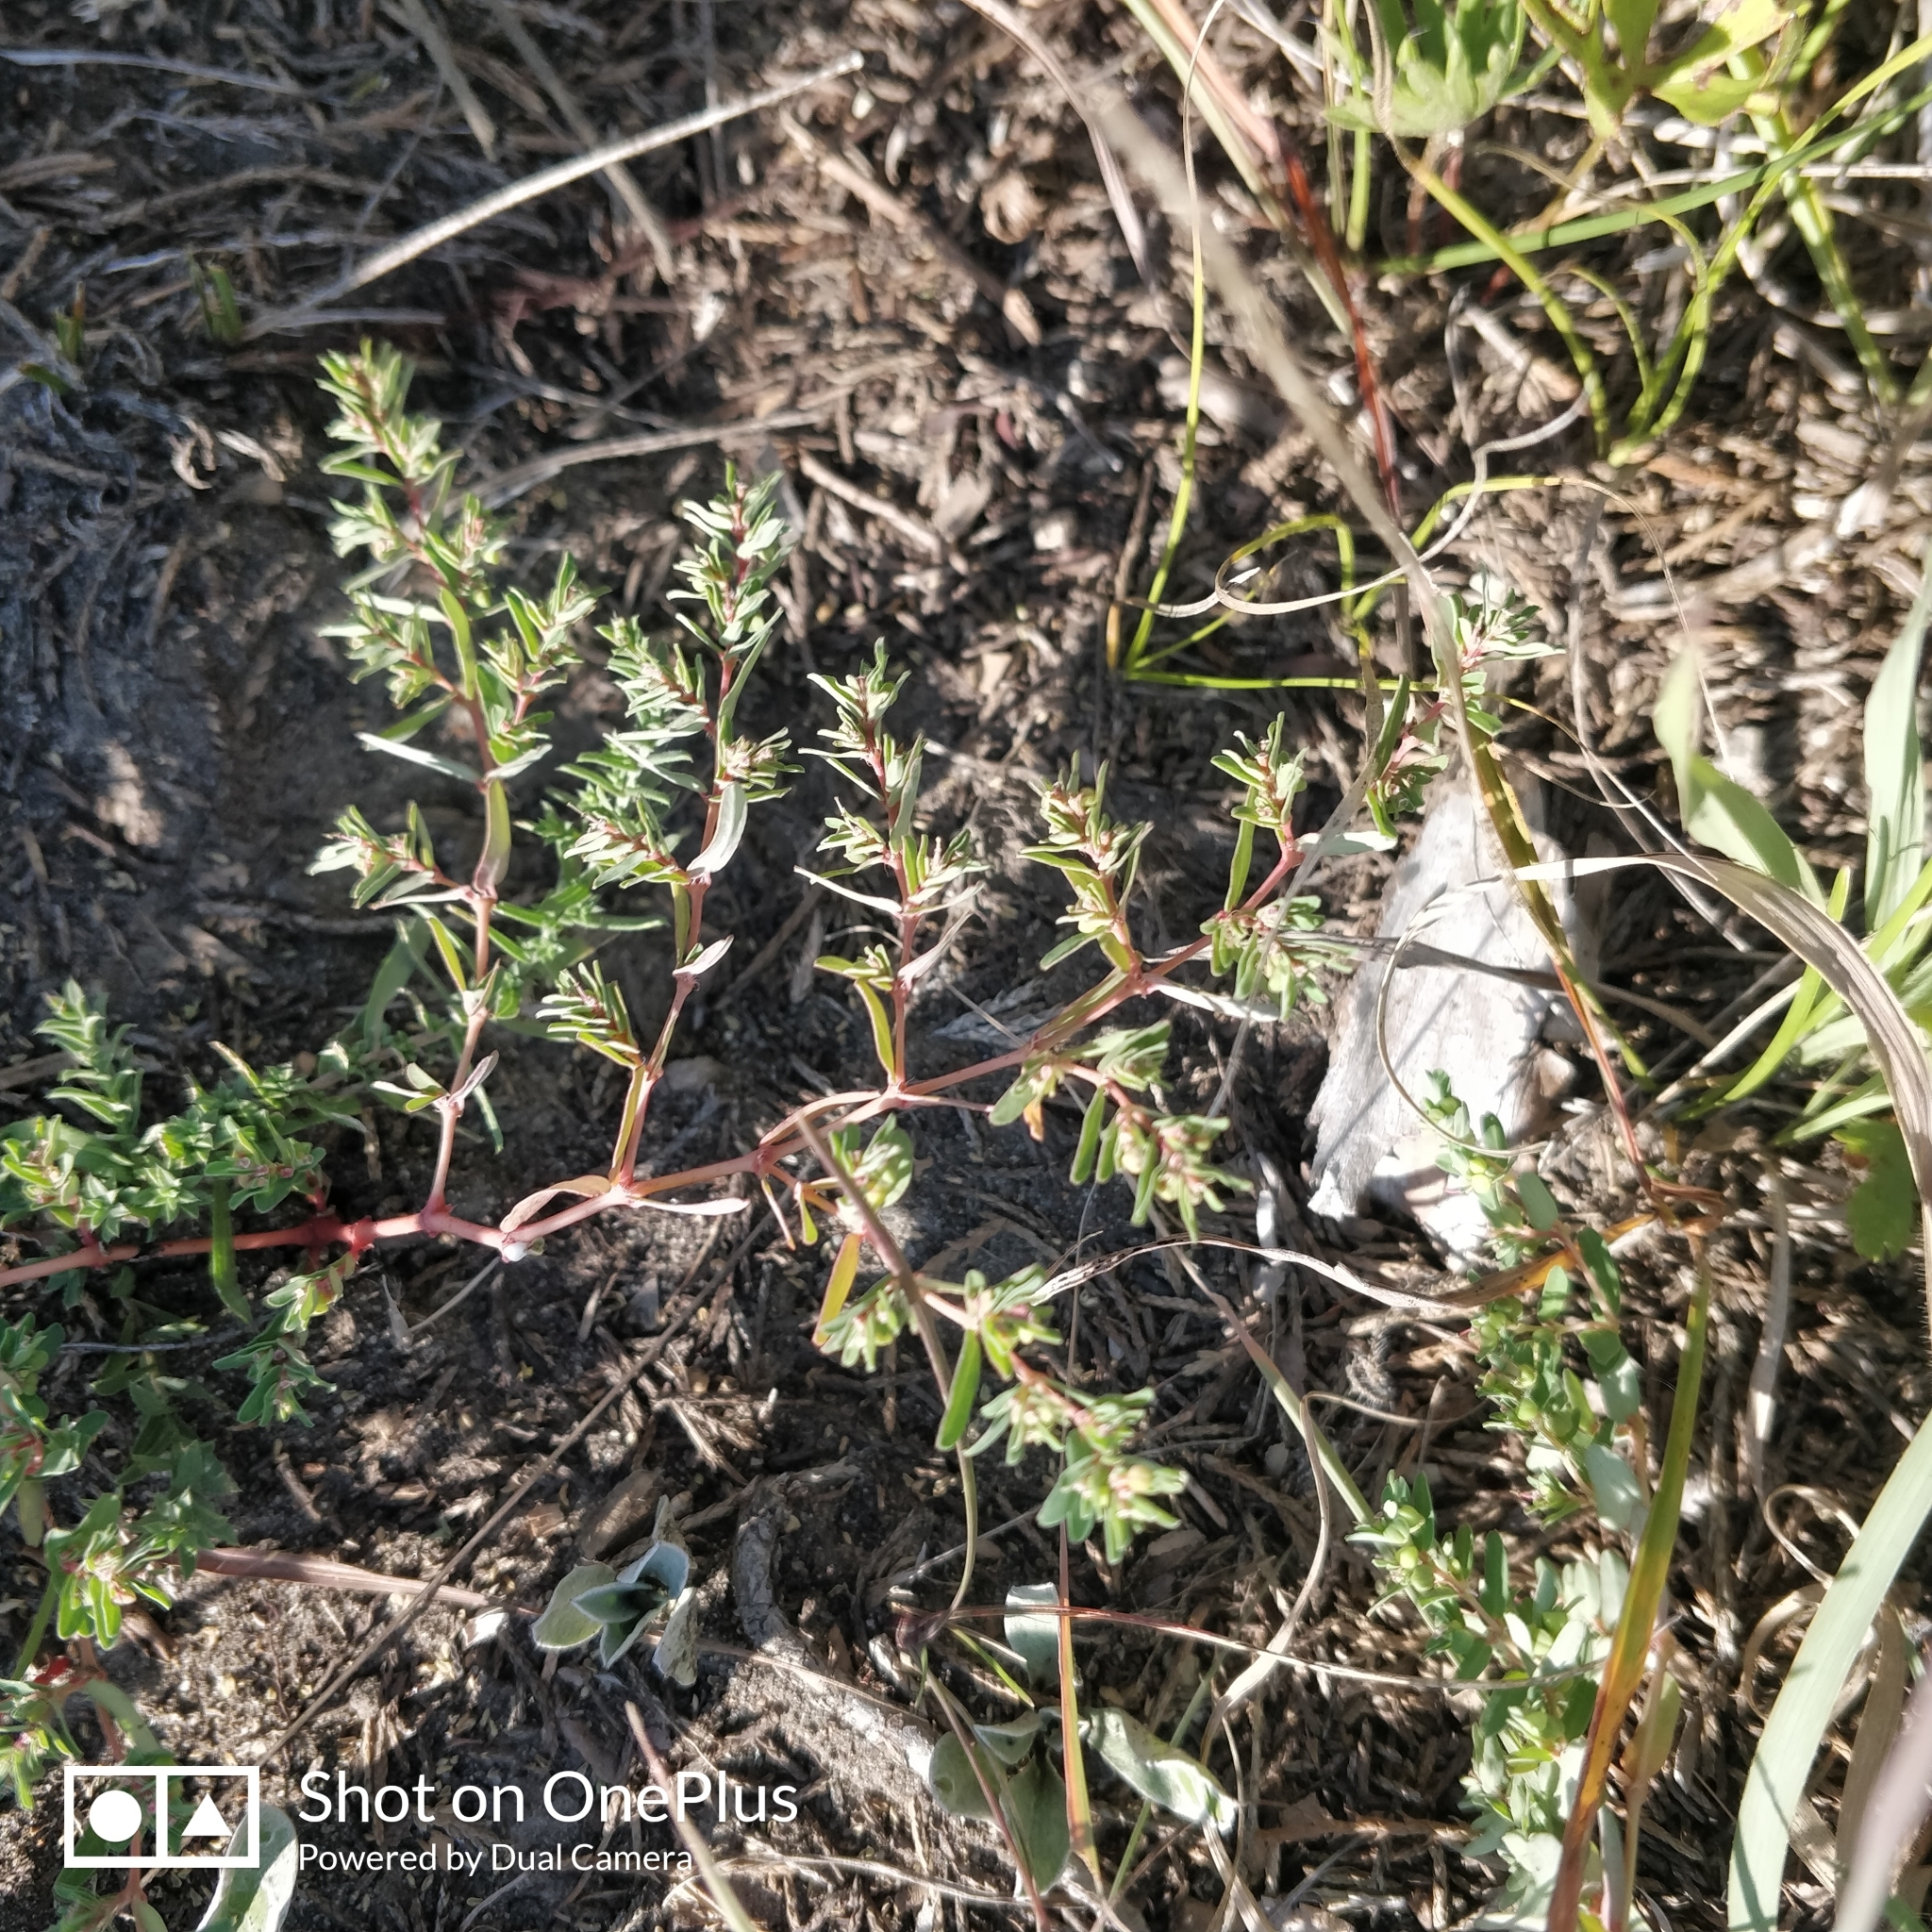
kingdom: Plantae
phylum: Tracheophyta
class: Magnoliopsida
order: Malpighiales
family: Euphorbiaceae
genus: Euphorbia
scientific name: Euphorbia glyptosperma
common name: Corrugate-seeded spurge
